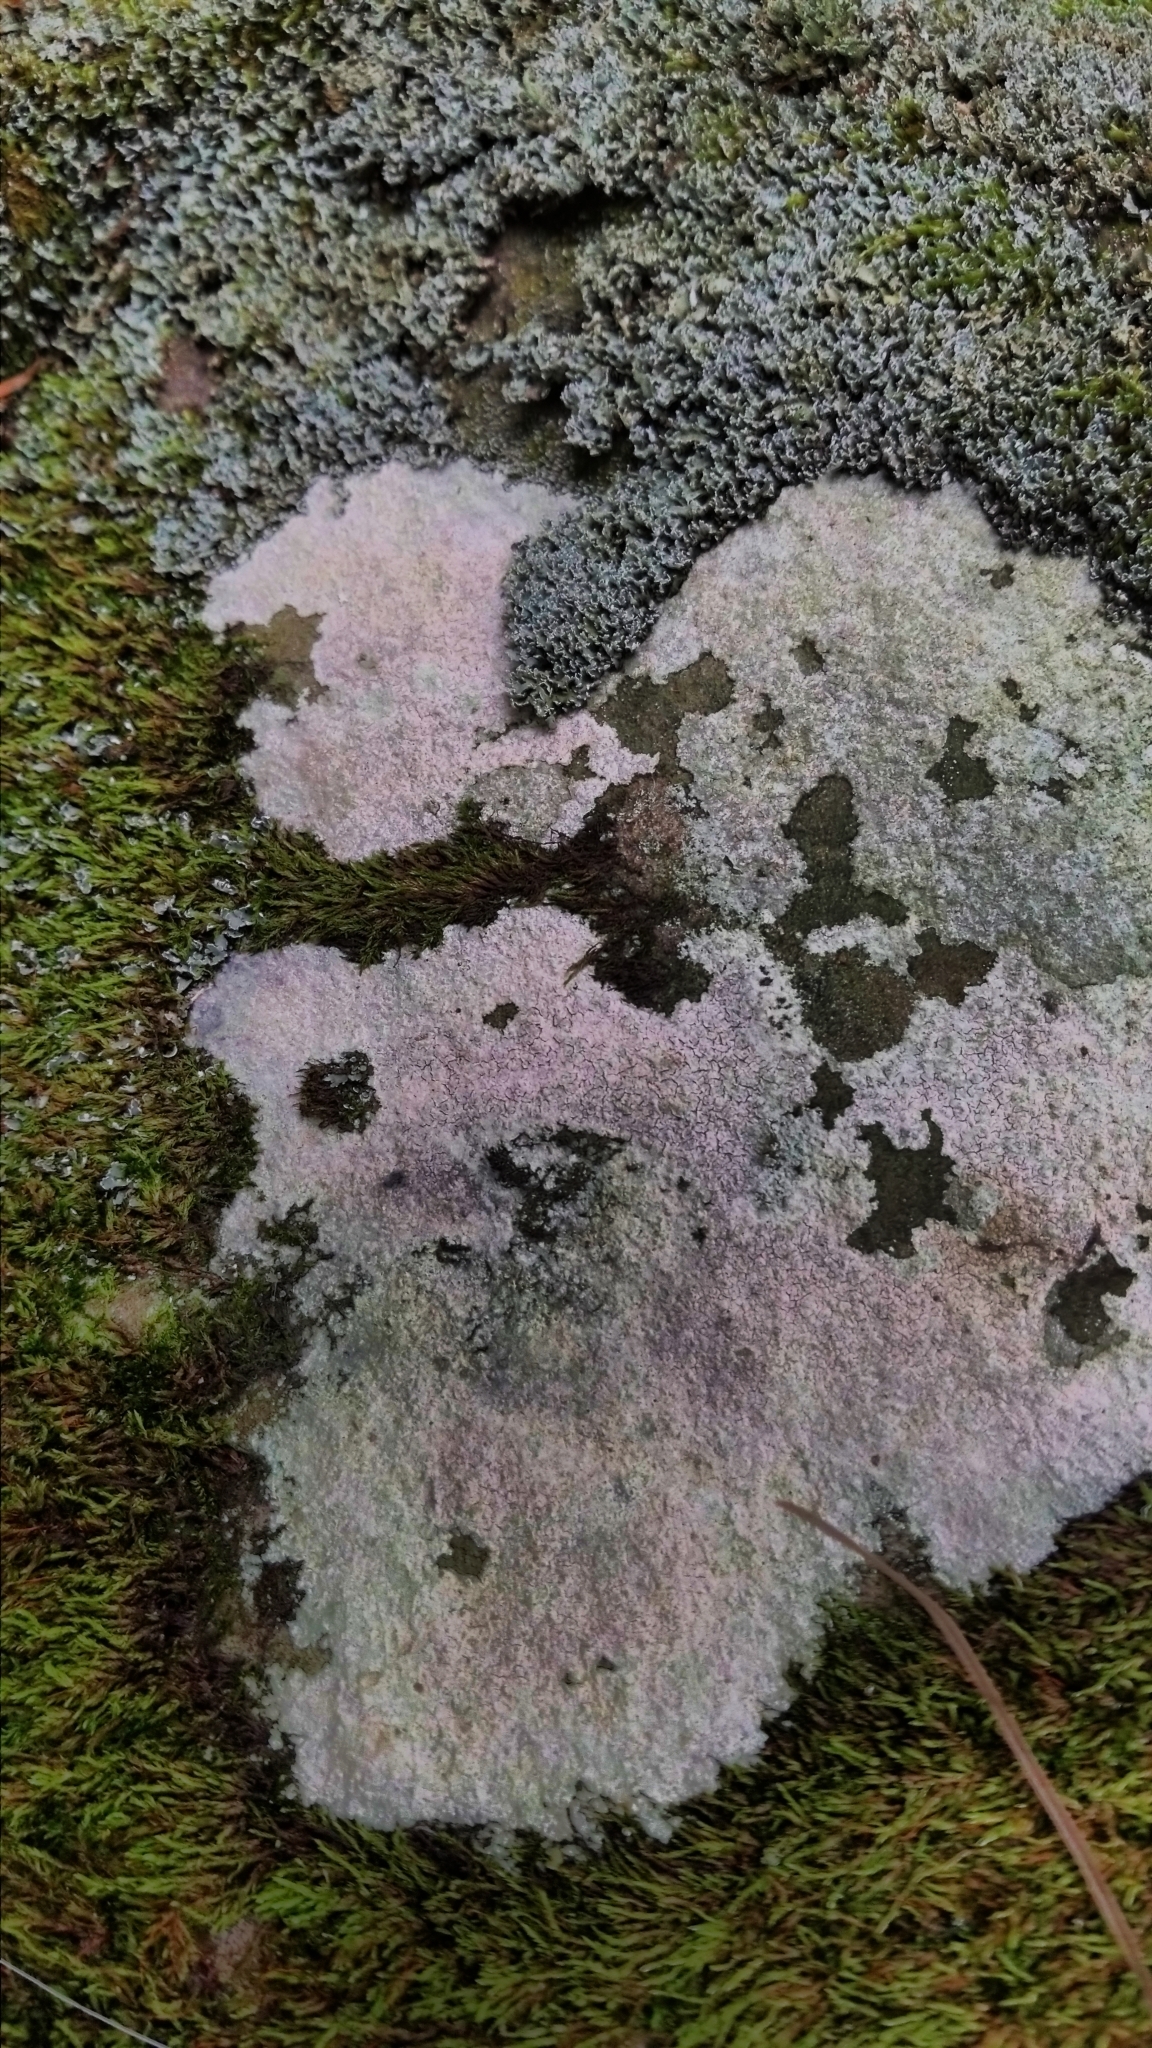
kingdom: Fungi
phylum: Ascomycota
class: Lecanoromycetes
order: Baeomycetales
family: Trapeliaceae
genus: Kleopowiella
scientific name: Kleopowiella placodioides
